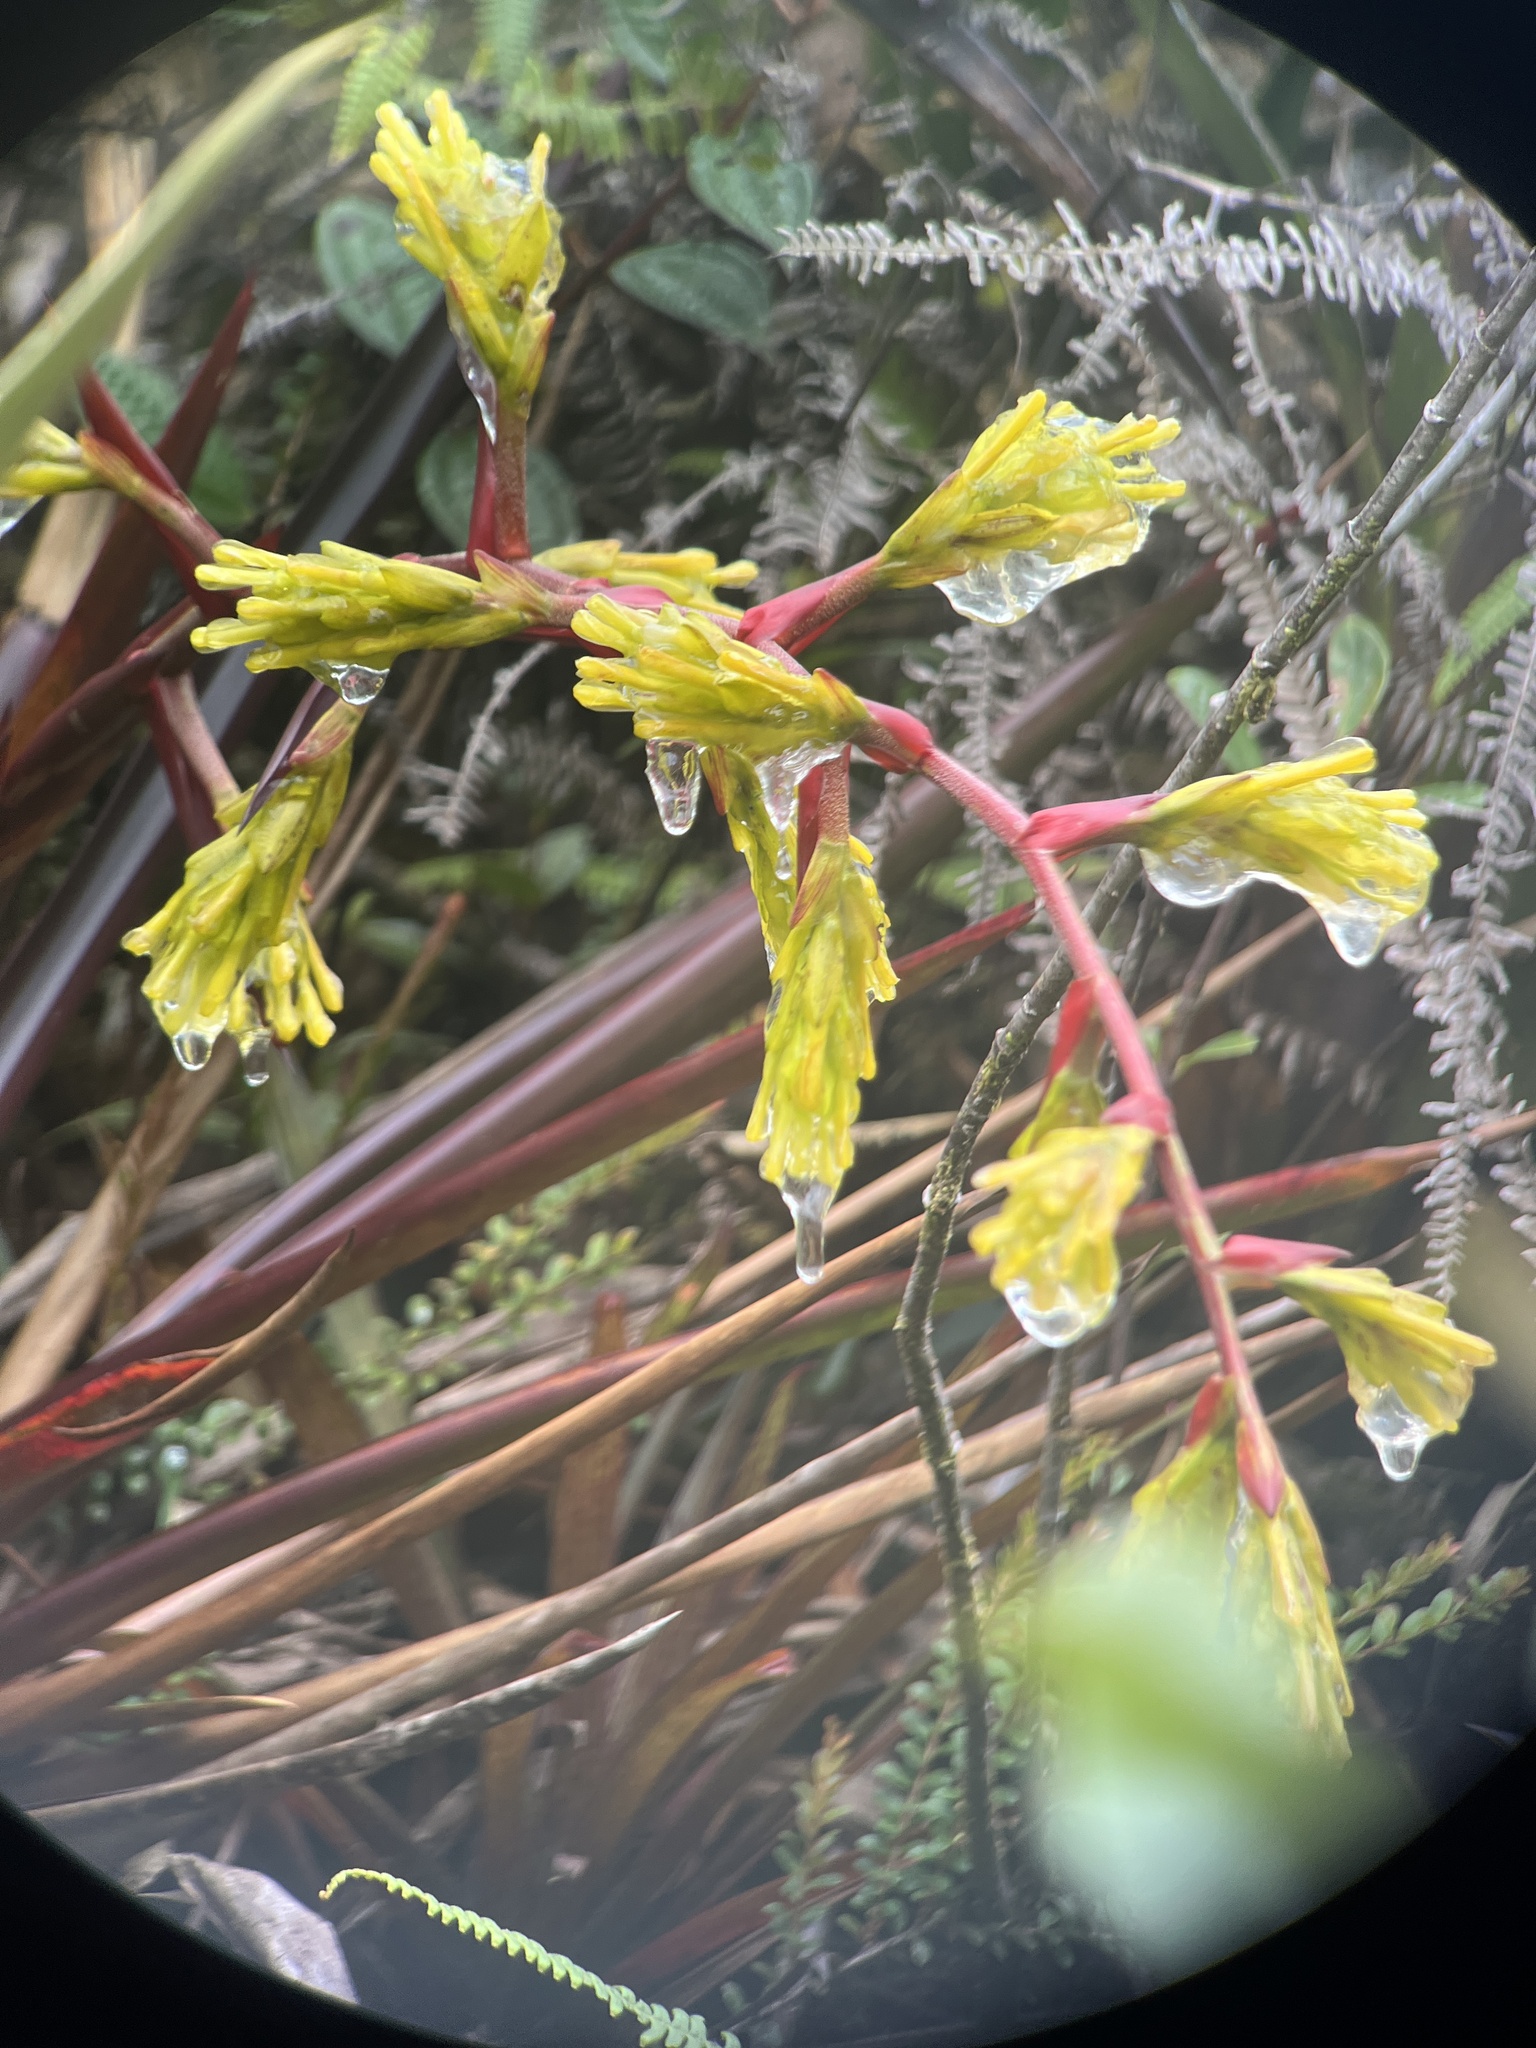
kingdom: Plantae
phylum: Tracheophyta
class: Liliopsida
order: Poales
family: Bromeliaceae
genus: Guzmania
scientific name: Guzmania rugosa
